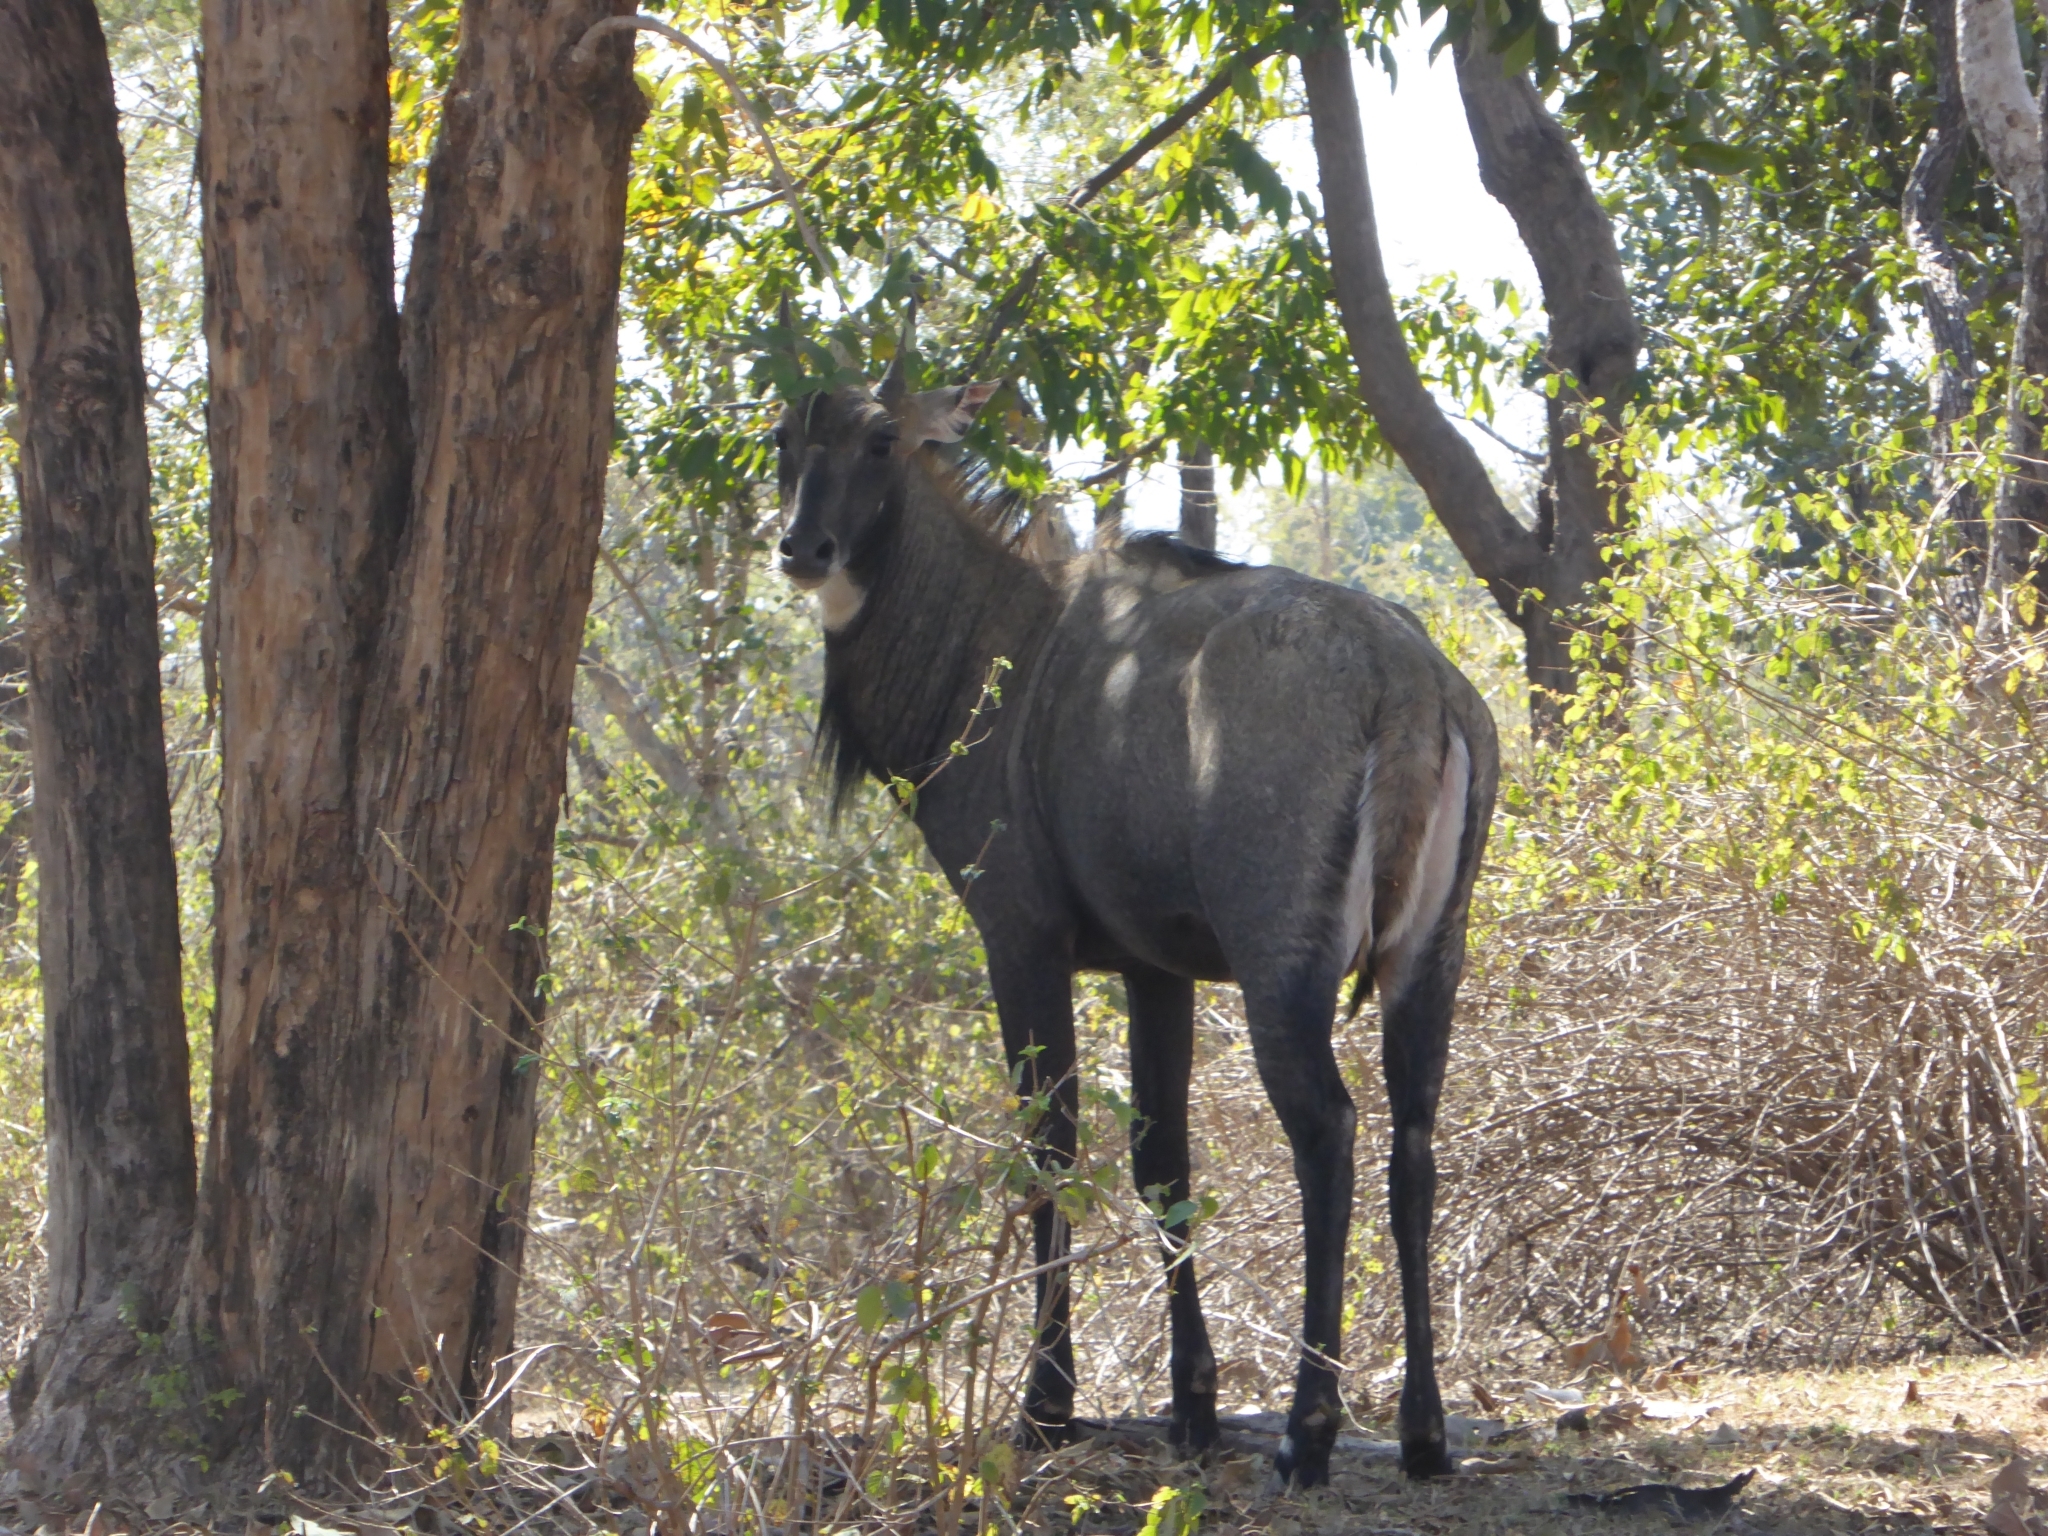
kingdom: Animalia
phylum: Chordata
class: Mammalia
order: Artiodactyla
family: Bovidae
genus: Boselaphus
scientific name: Boselaphus tragocamelus
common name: Nilgai
